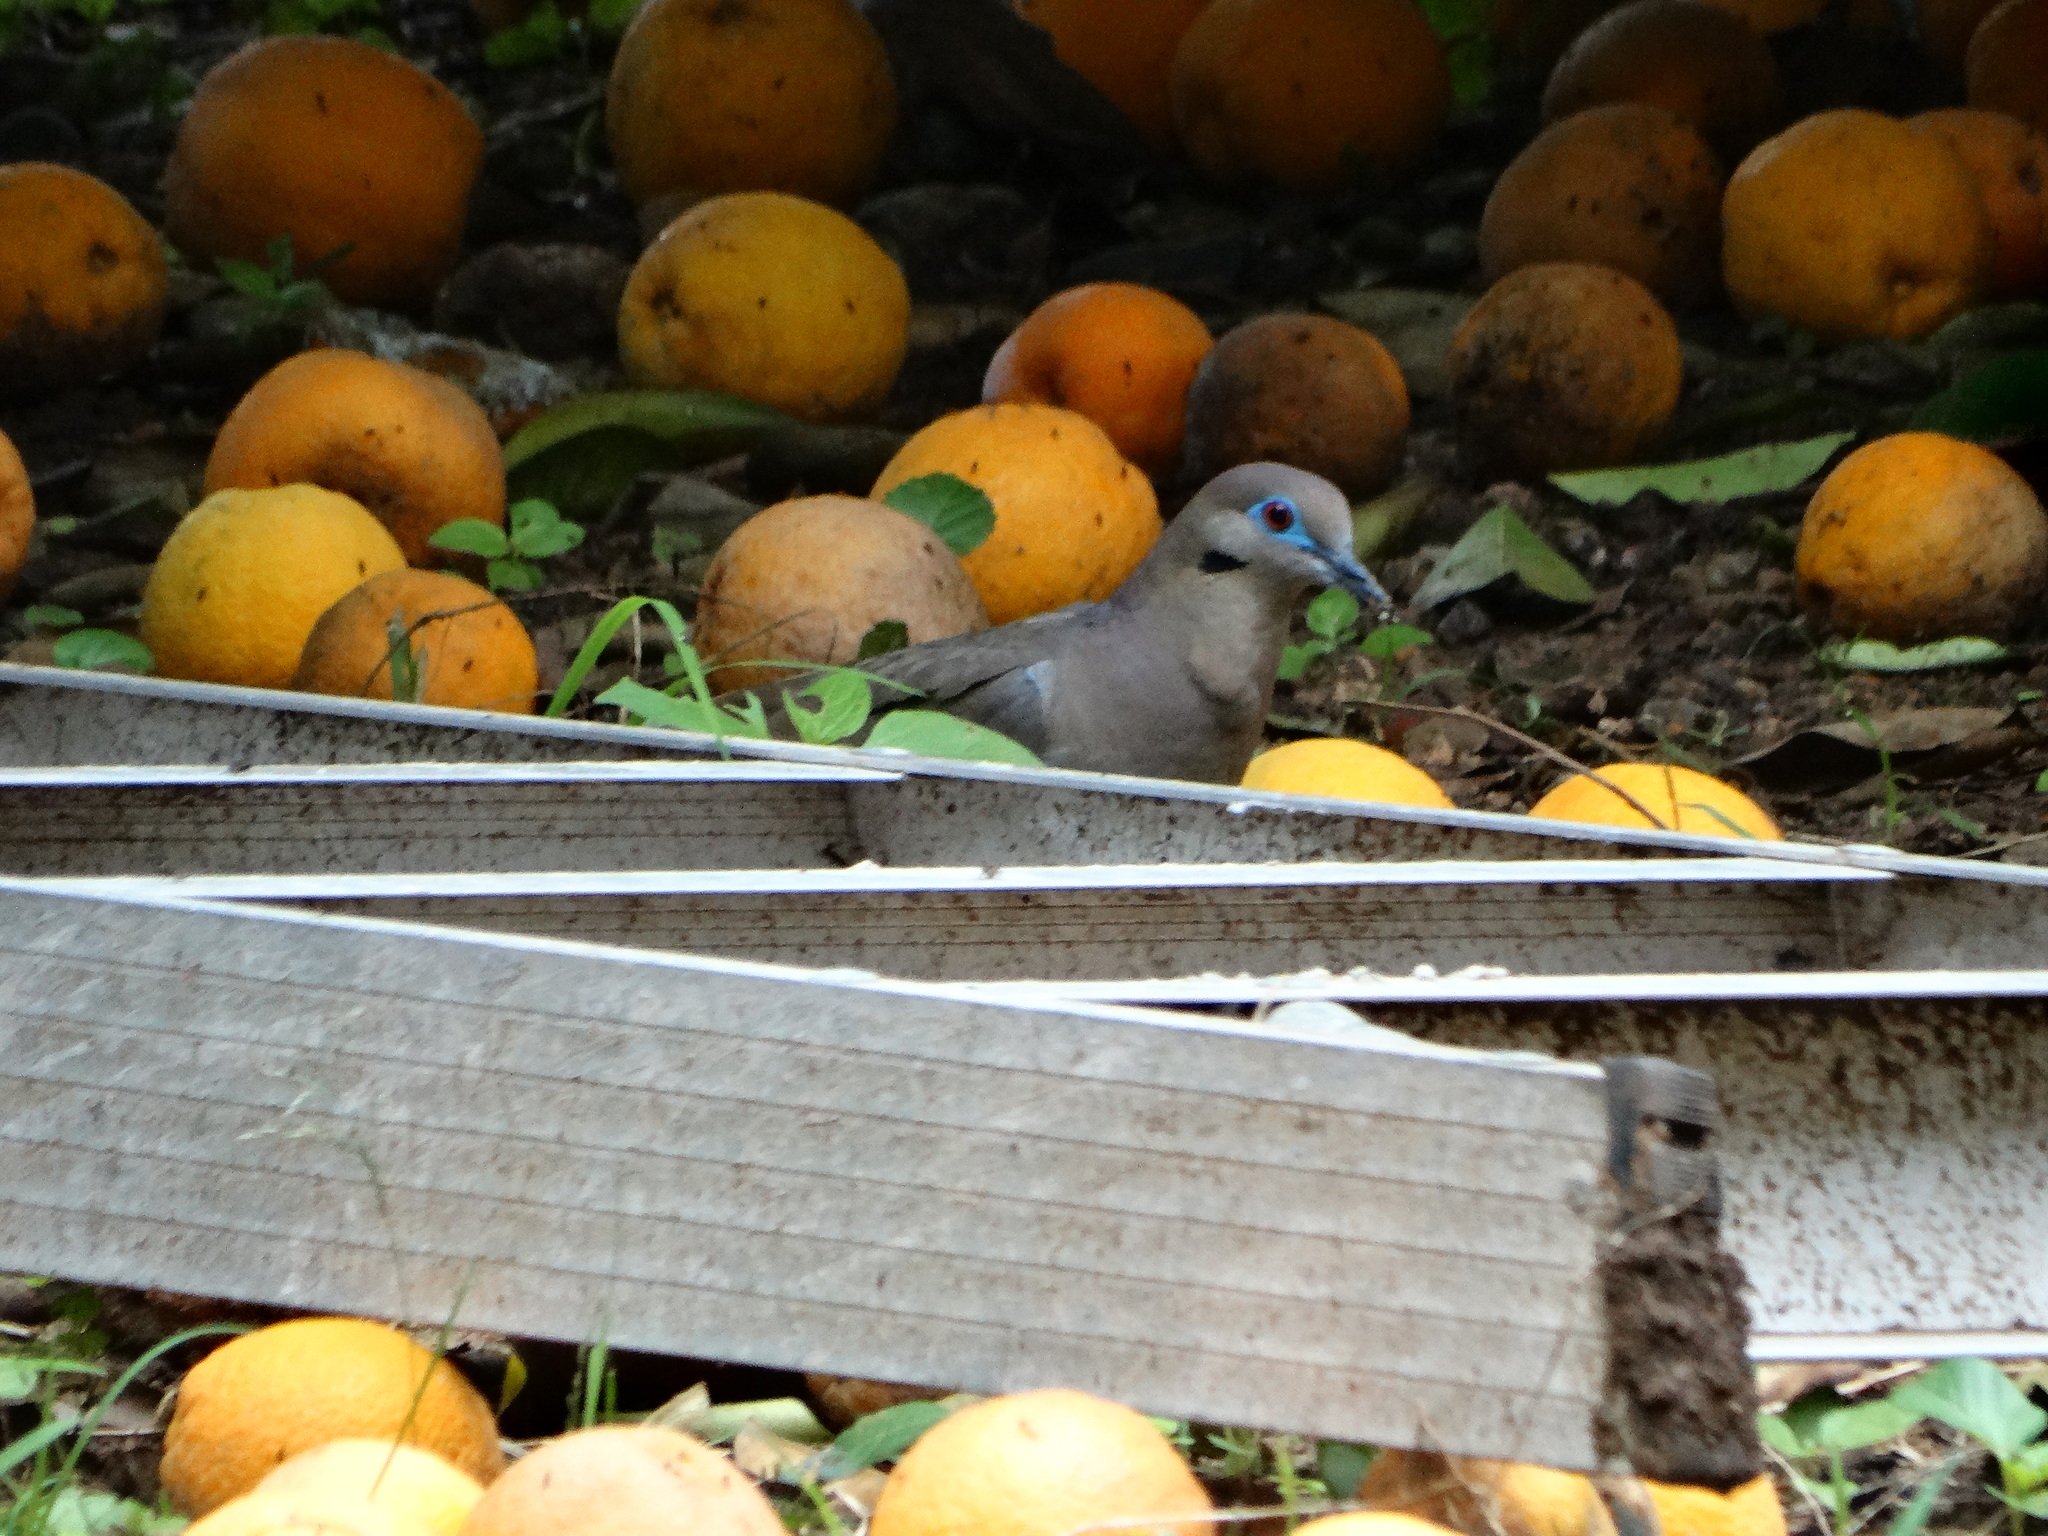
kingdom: Animalia
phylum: Chordata
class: Aves
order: Columbiformes
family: Columbidae
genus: Zenaida
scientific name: Zenaida asiatica
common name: White-winged dove
